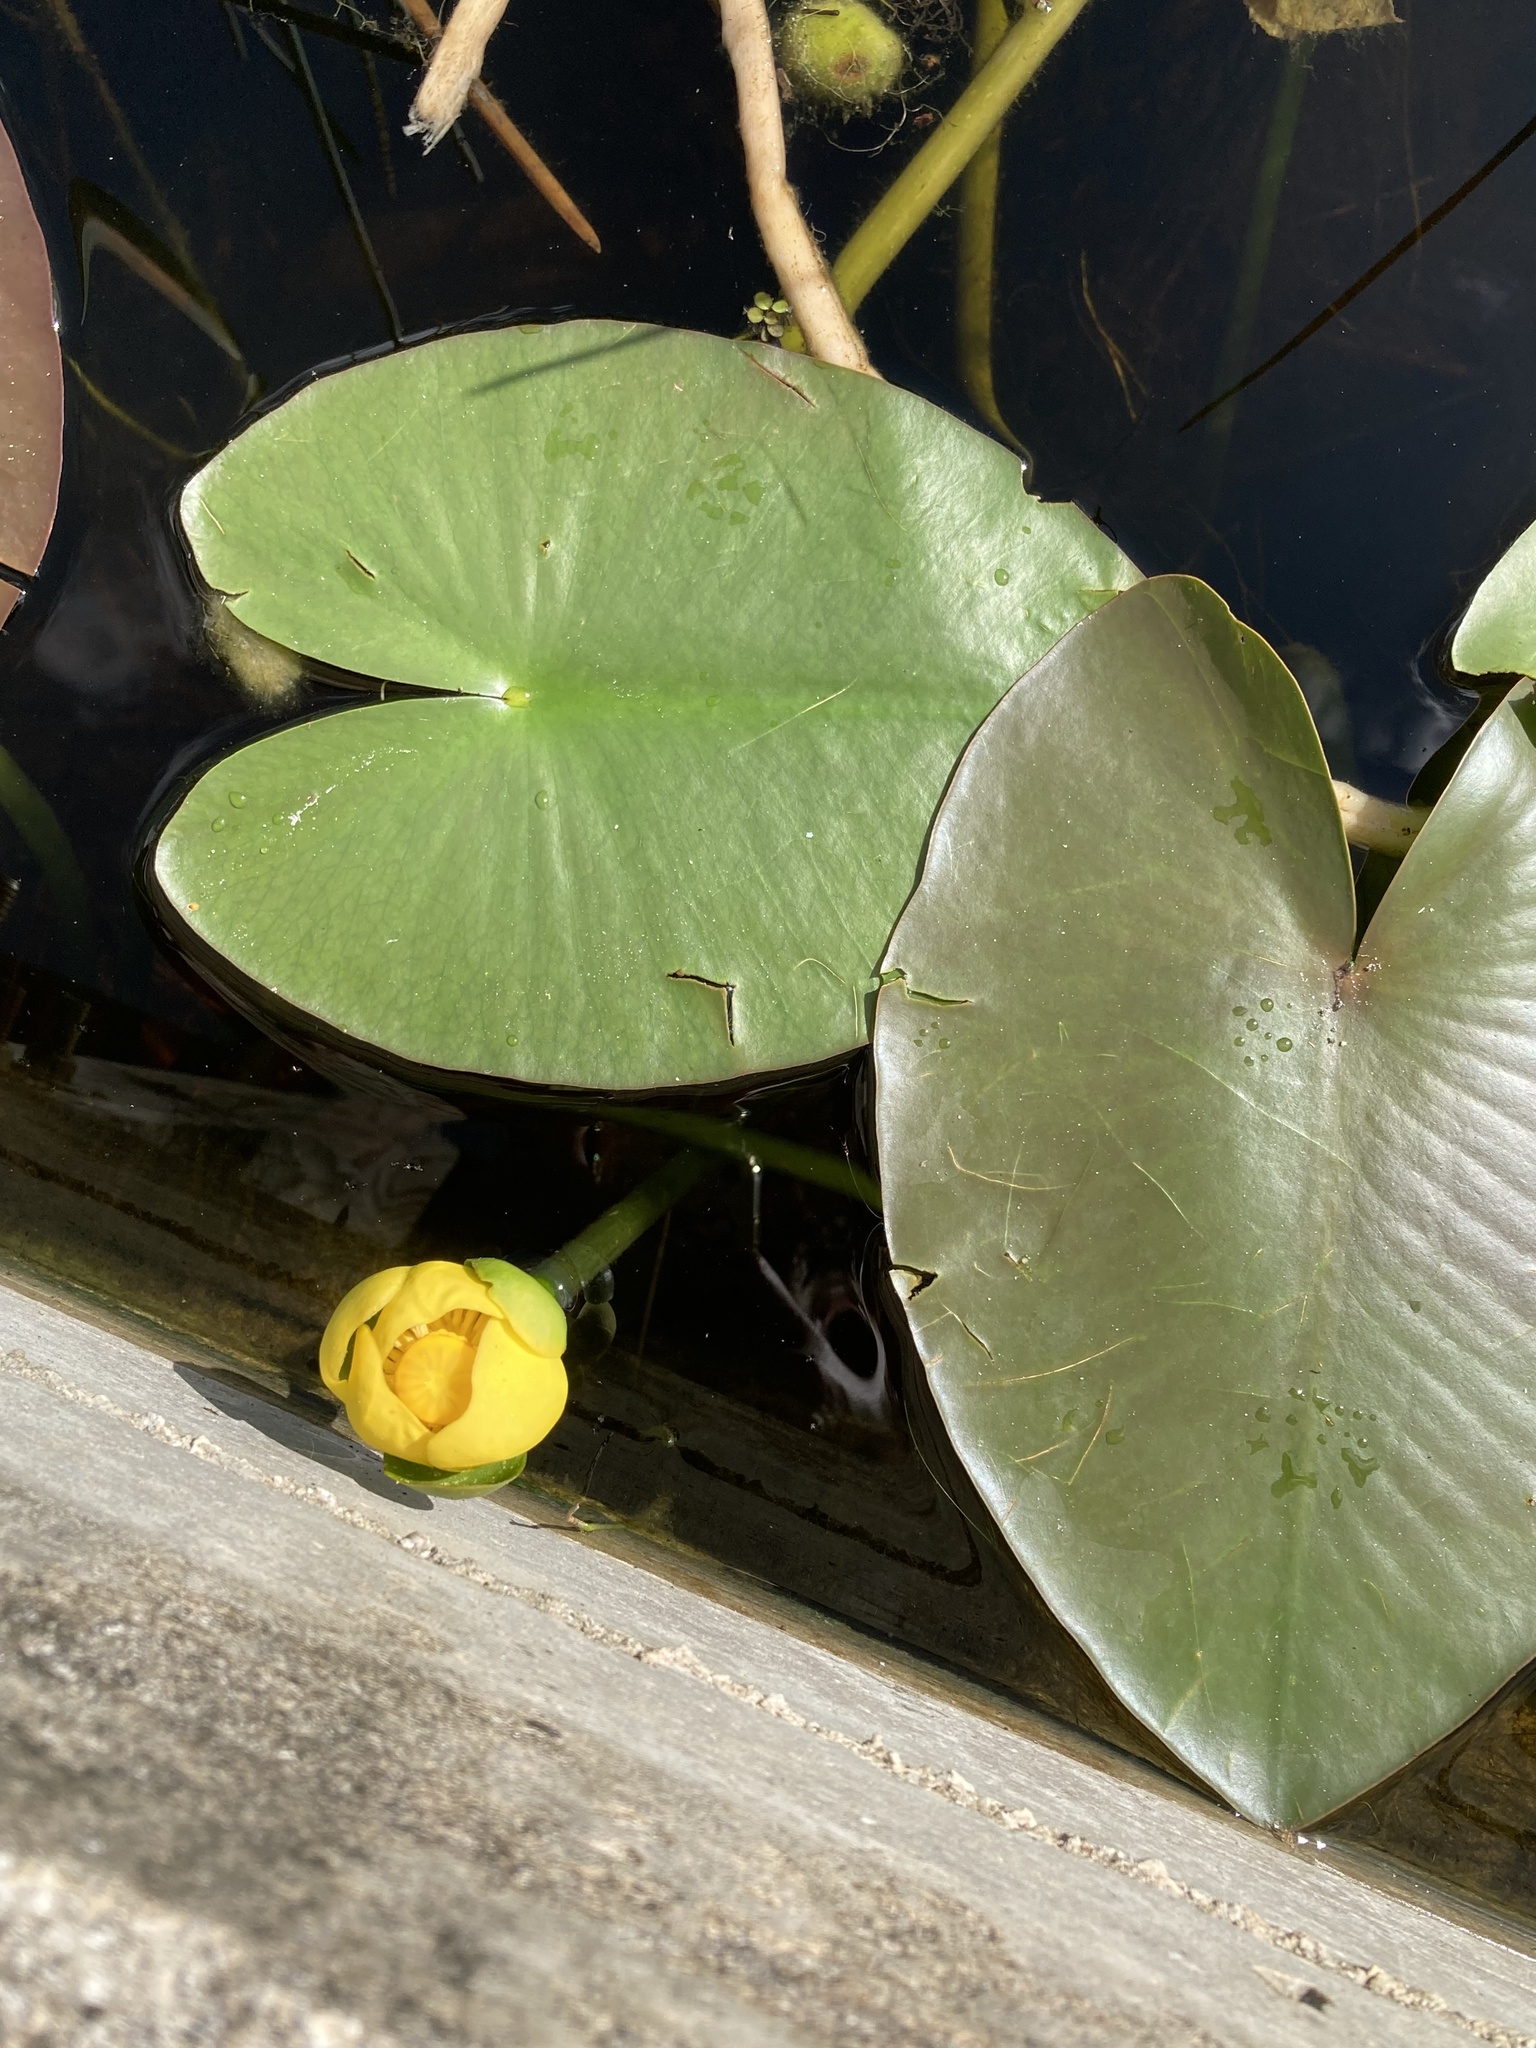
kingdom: Plantae
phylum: Tracheophyta
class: Magnoliopsida
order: Nymphaeales
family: Nymphaeaceae
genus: Nuphar
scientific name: Nuphar advena
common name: Spatter-dock
